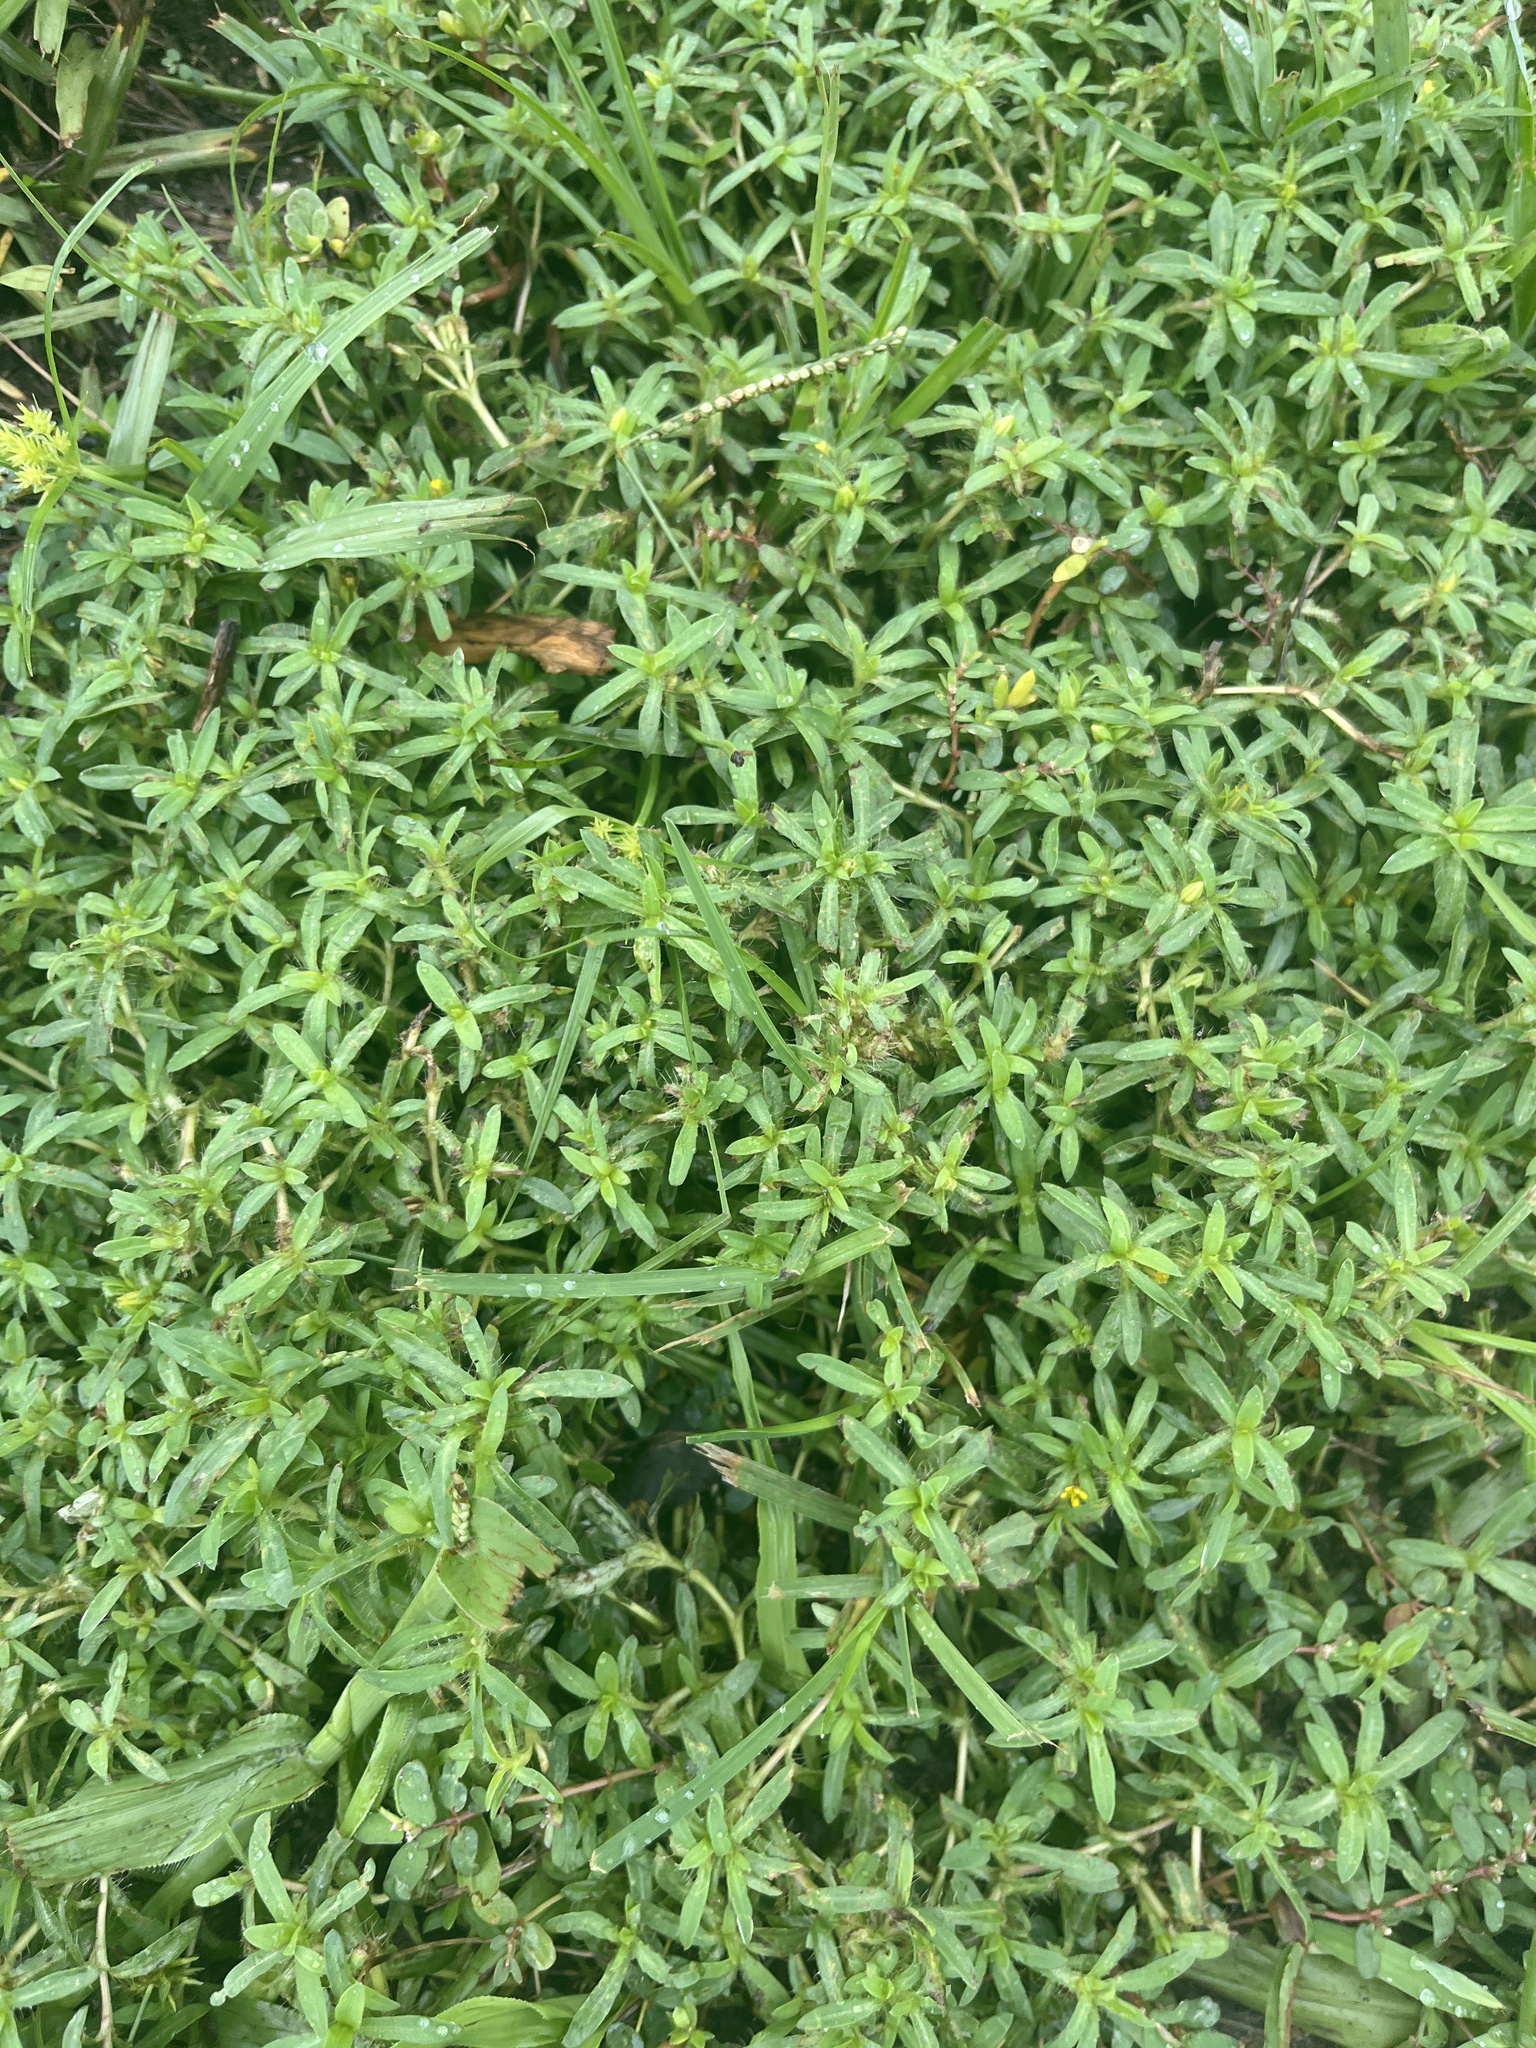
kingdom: Plantae
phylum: Tracheophyta
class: Magnoliopsida
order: Asterales
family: Asteraceae
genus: Pectis
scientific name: Pectis prostrata
